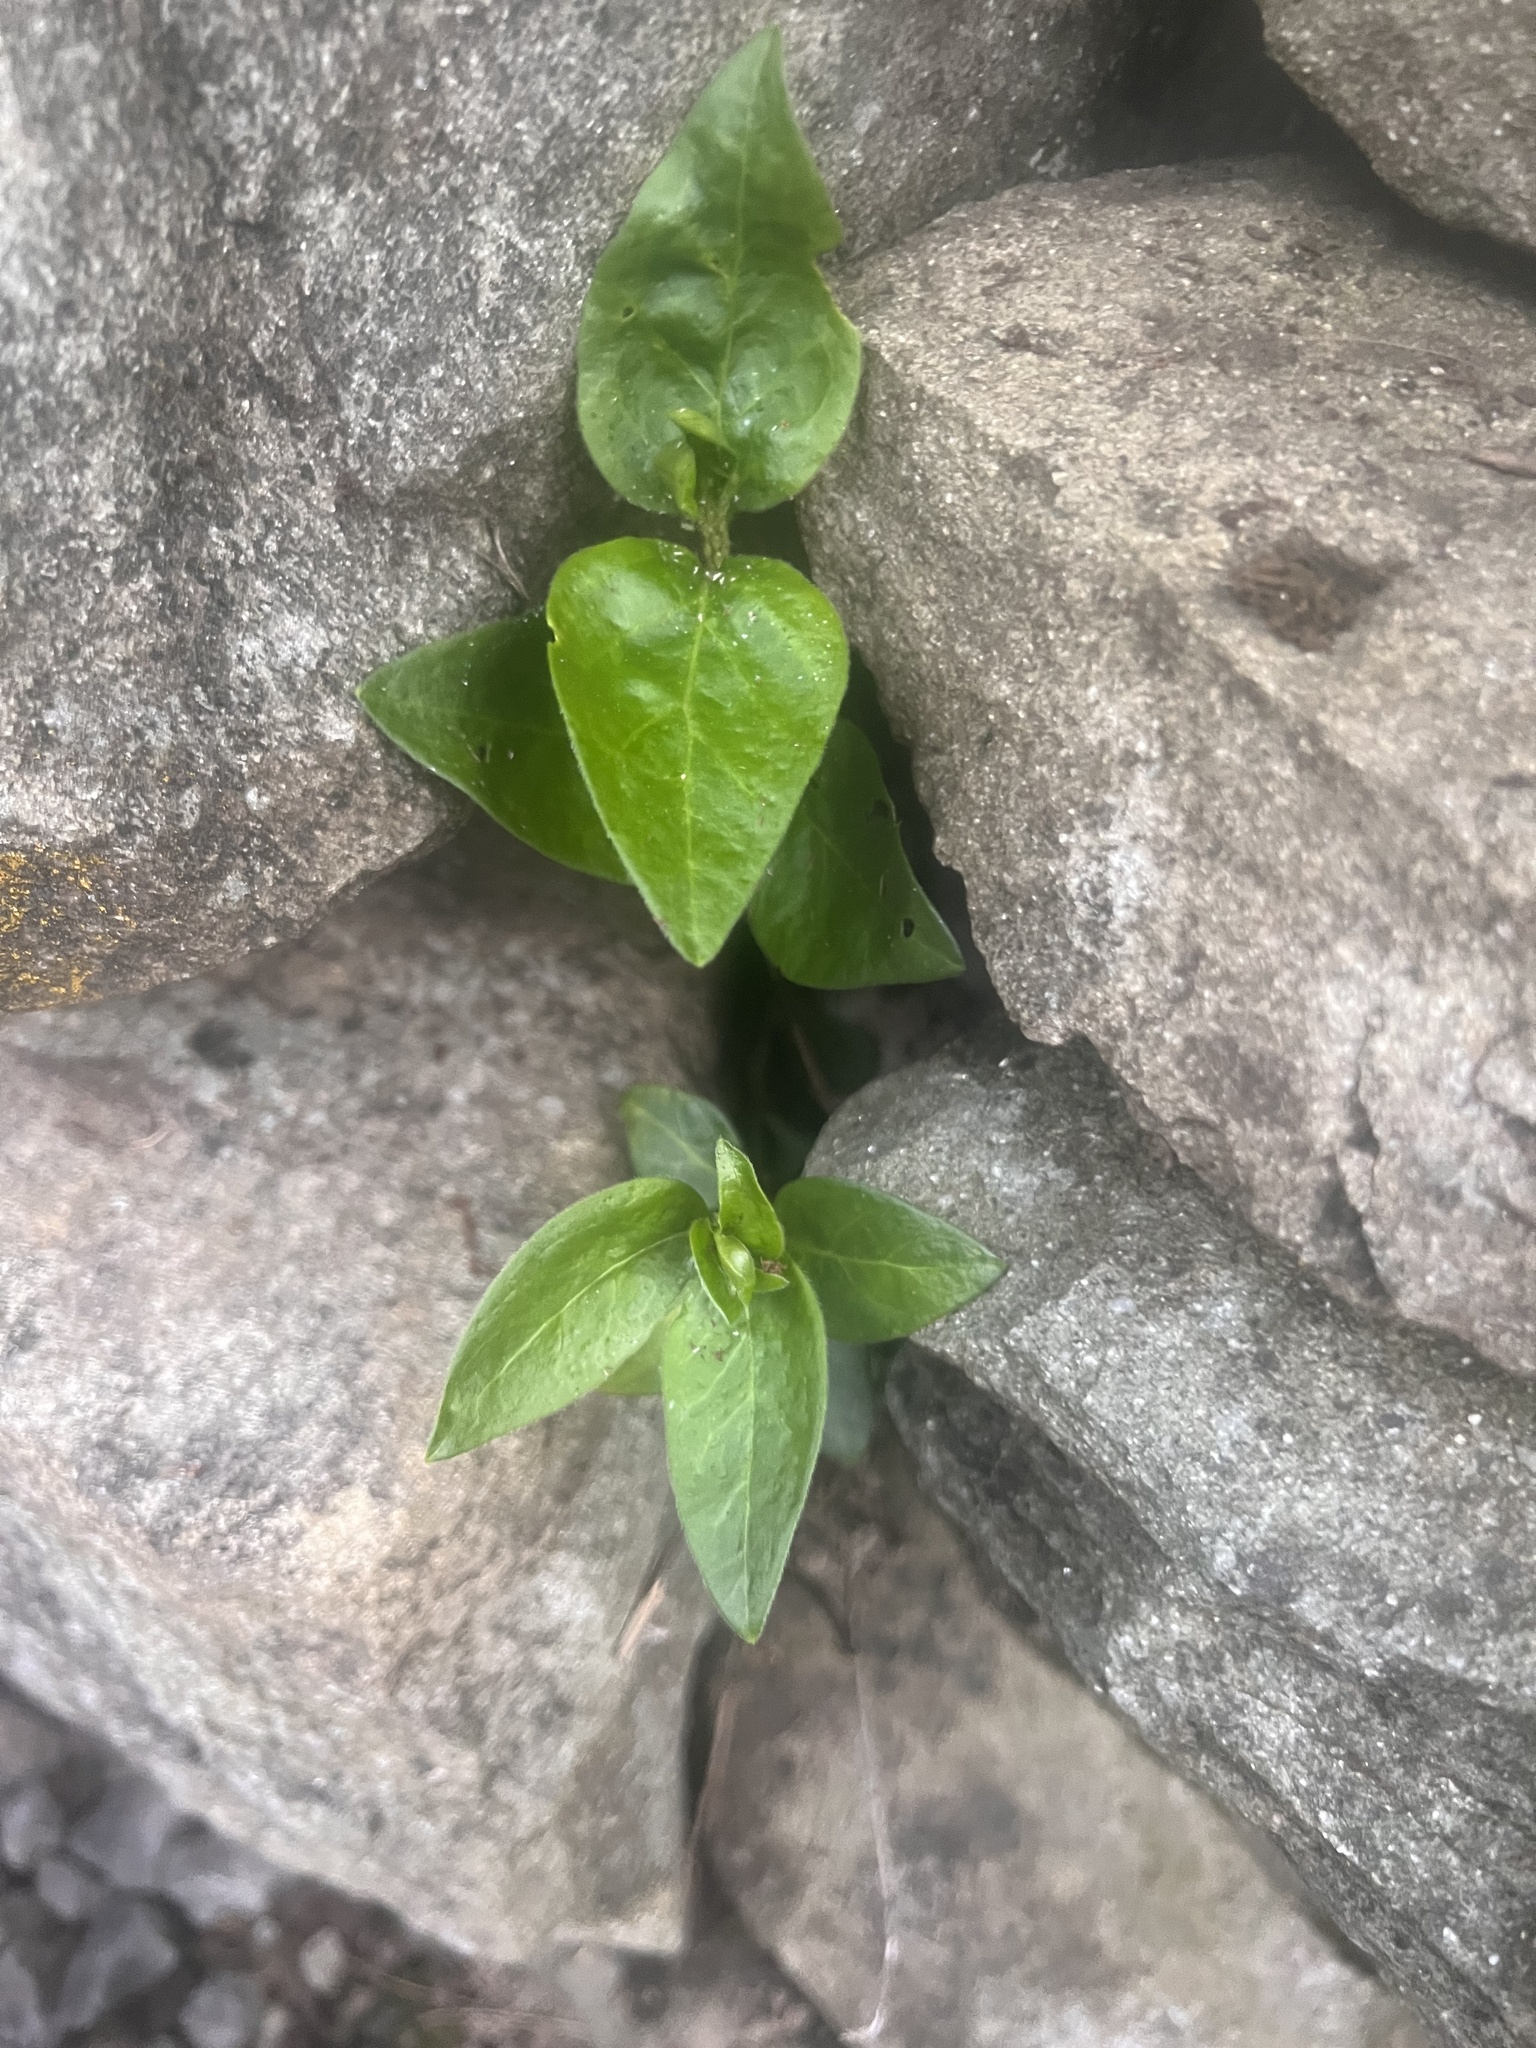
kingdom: Plantae
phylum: Tracheophyta
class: Magnoliopsida
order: Gentianales
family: Apocynaceae
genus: Vinca
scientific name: Vinca major
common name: Greater periwinkle
